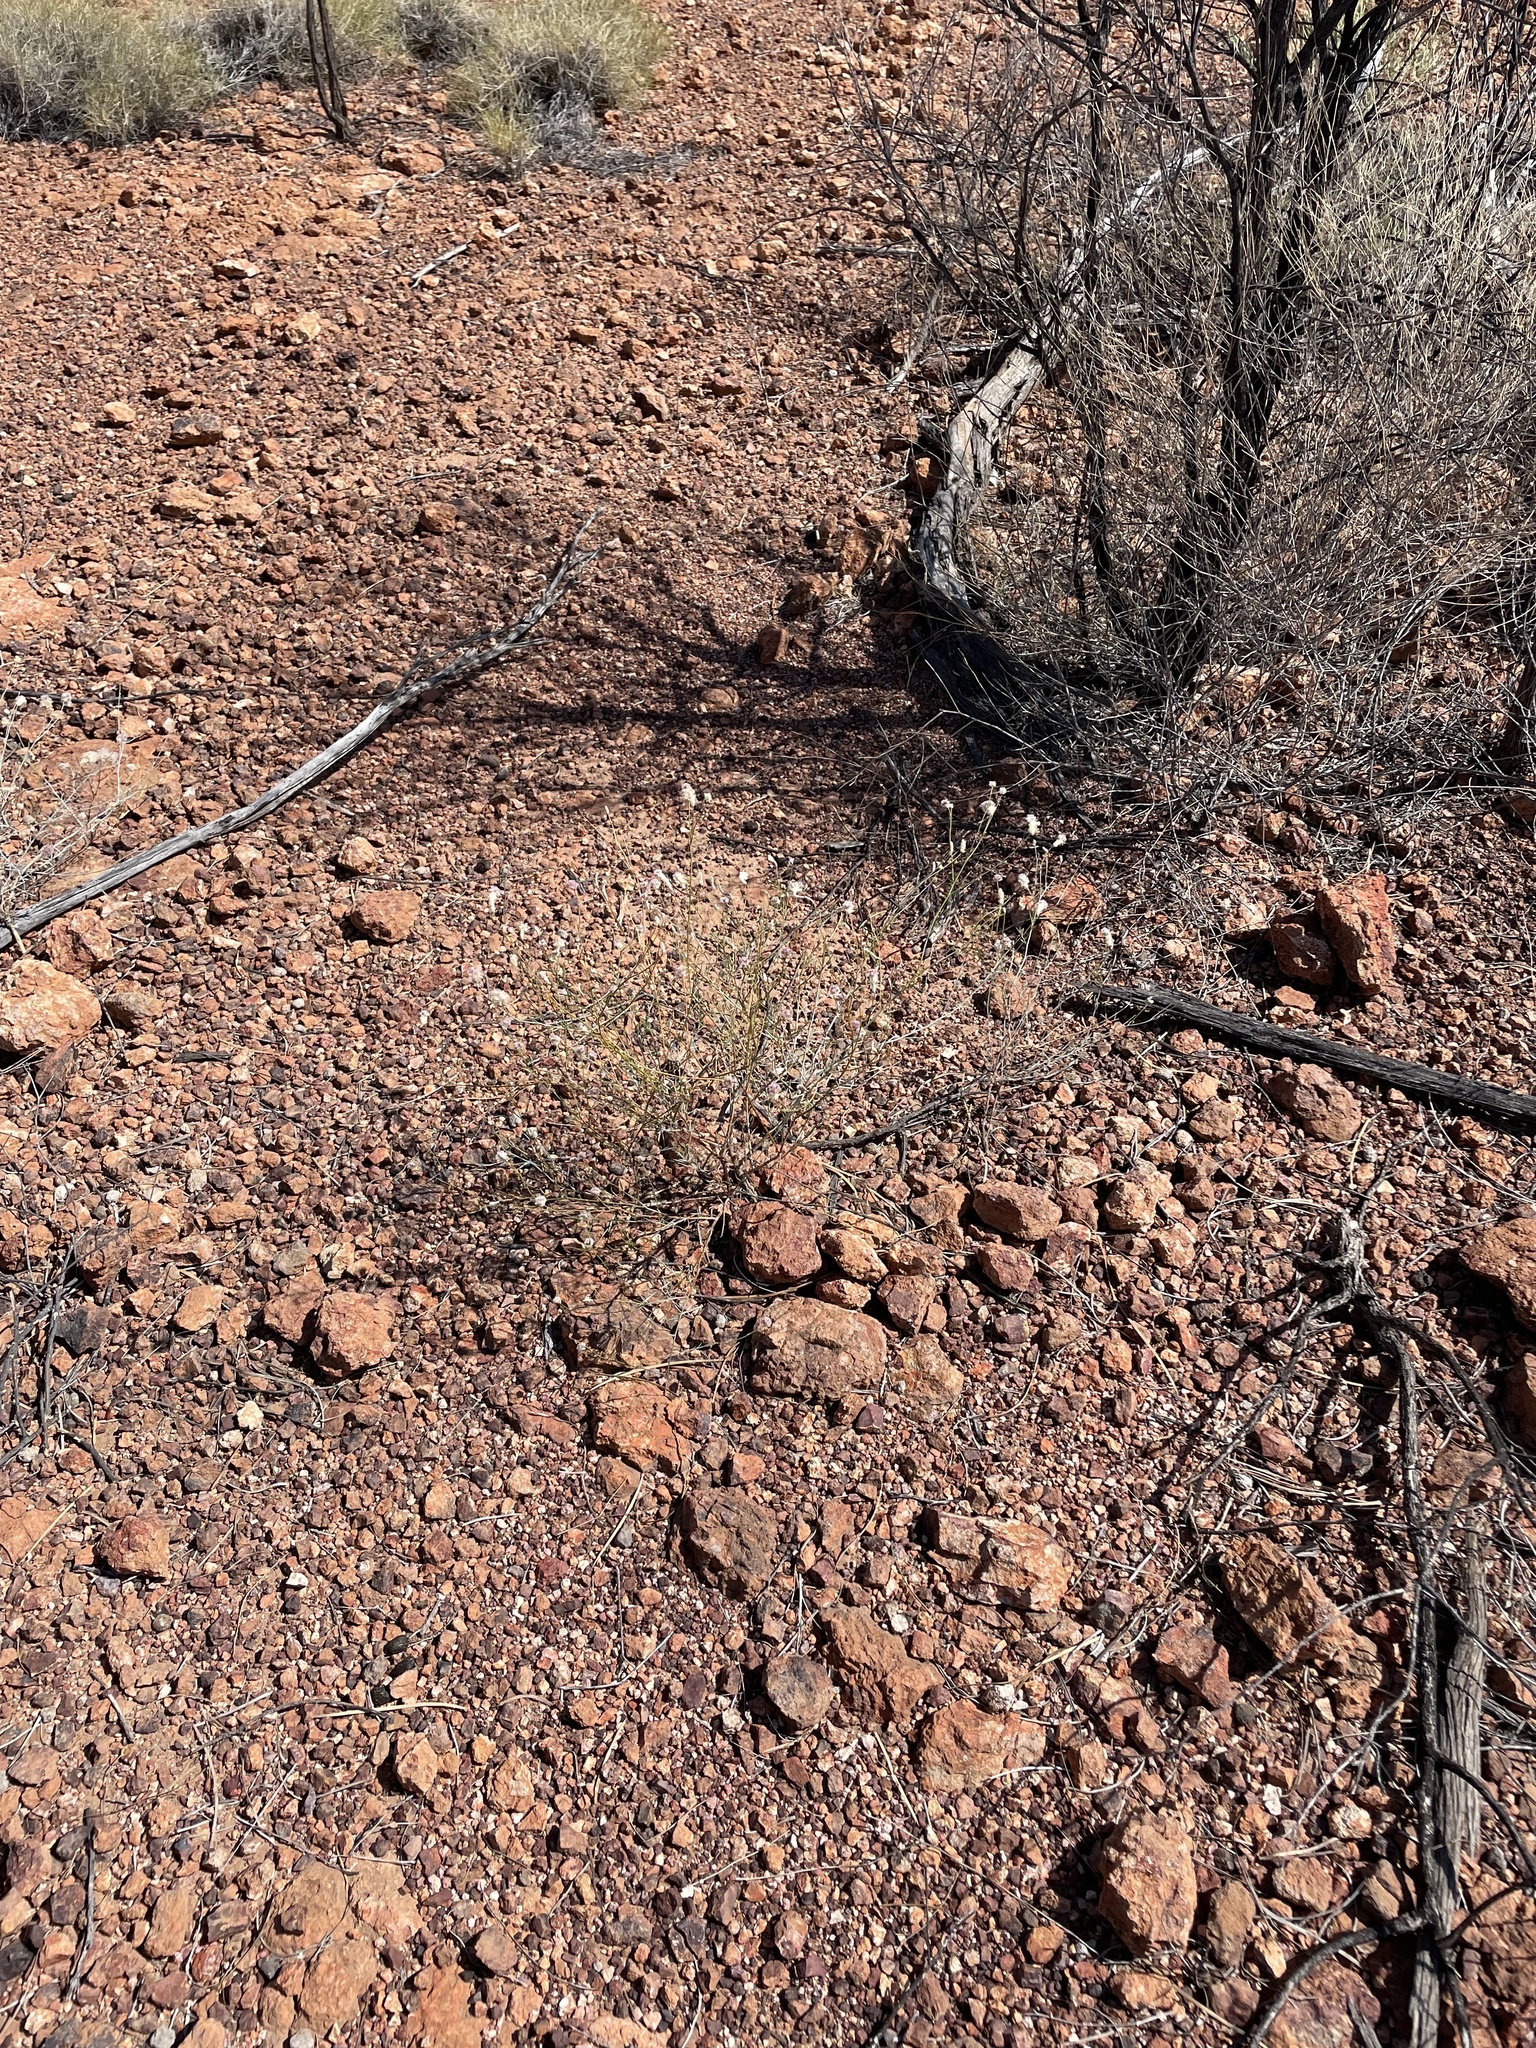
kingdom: Plantae
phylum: Tracheophyta
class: Magnoliopsida
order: Caryophyllales
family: Amaranthaceae
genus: Ptilotus
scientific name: Ptilotus schwartzii
